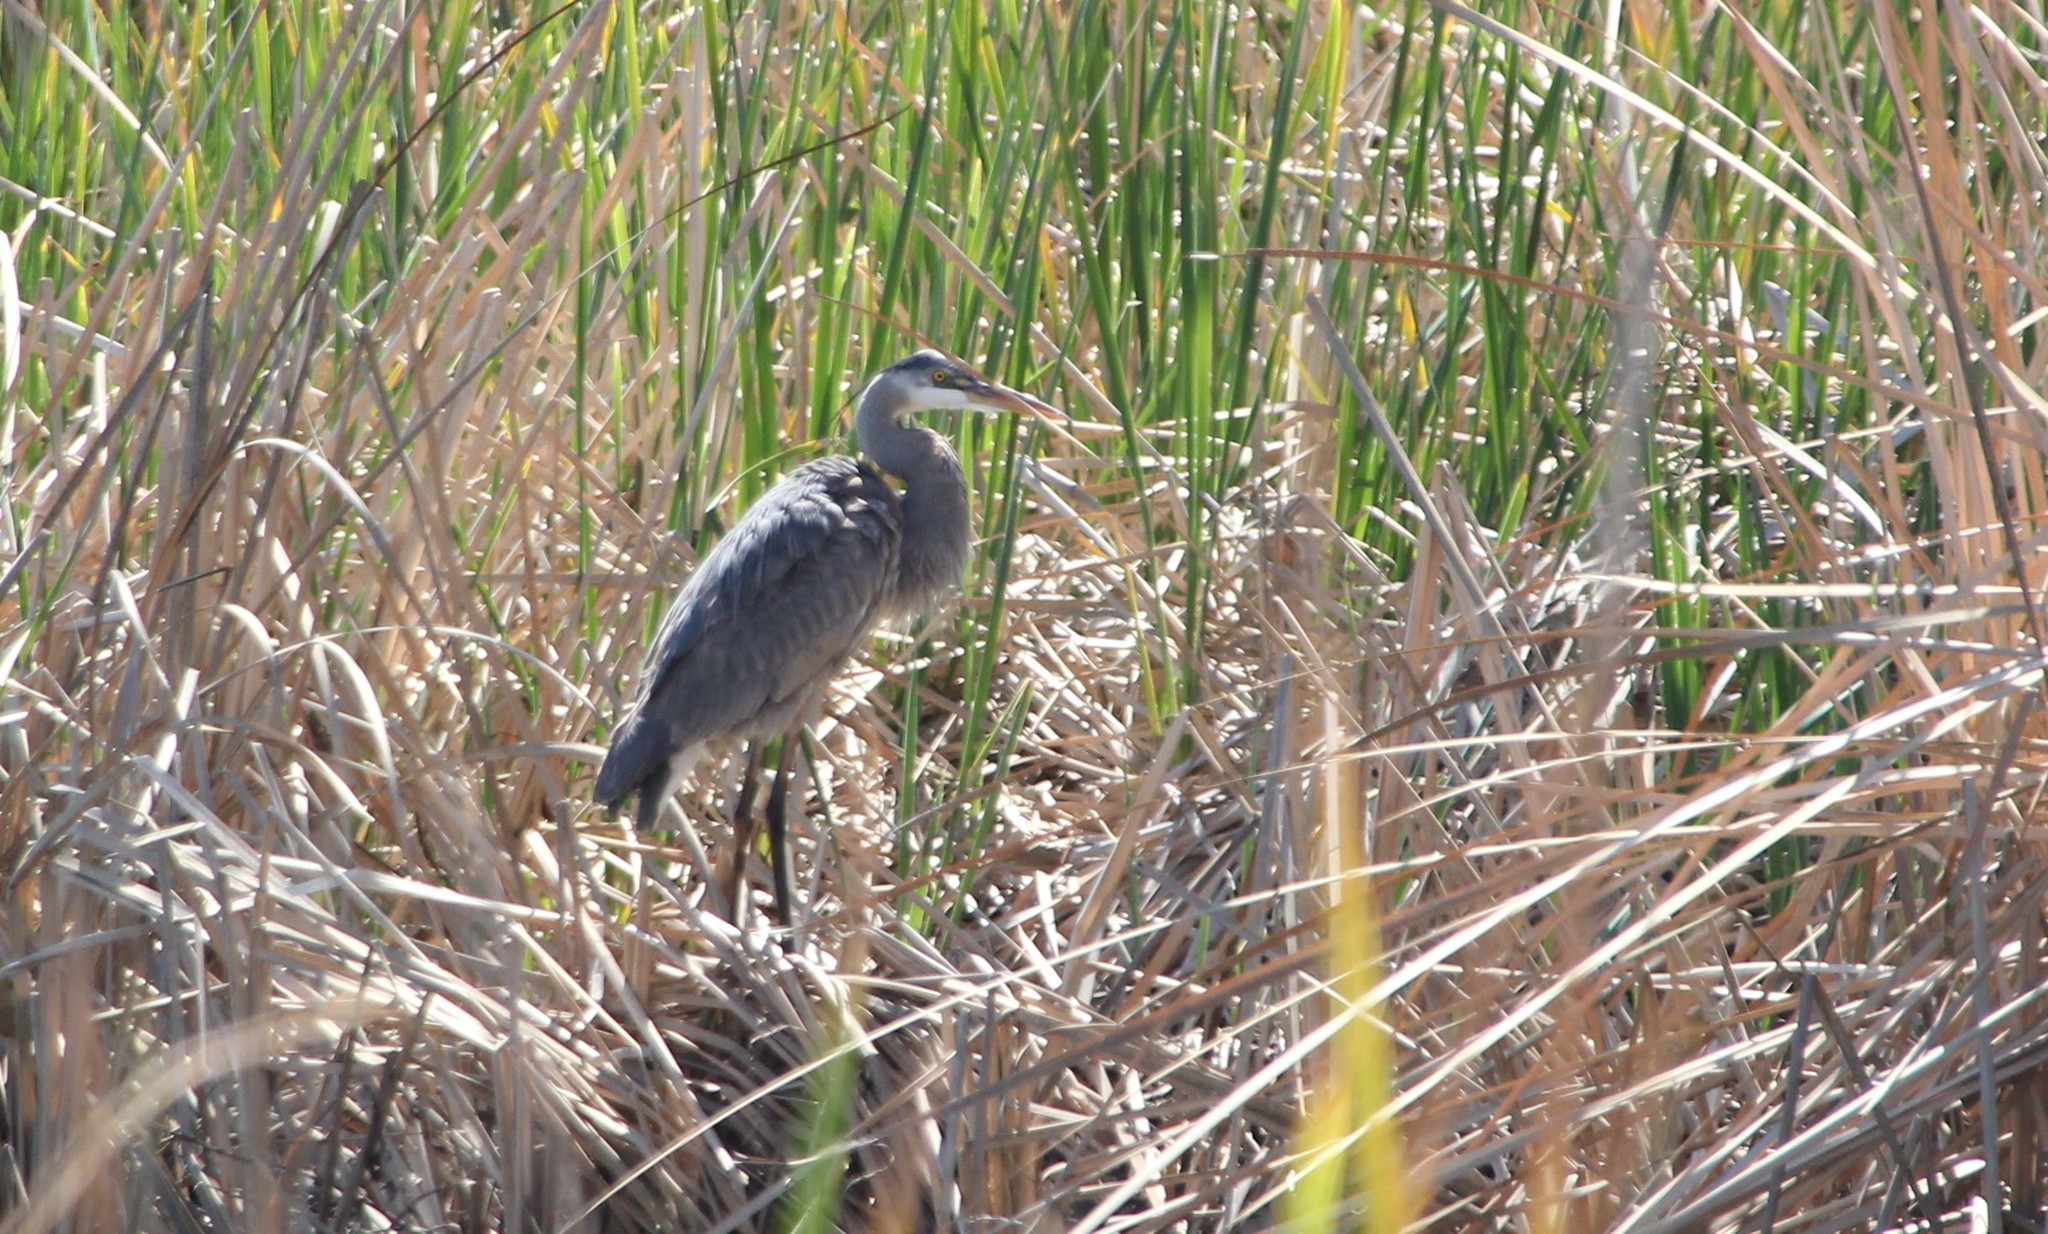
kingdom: Animalia
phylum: Chordata
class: Aves
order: Pelecaniformes
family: Ardeidae
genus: Ardea
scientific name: Ardea herodias
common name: Great blue heron
